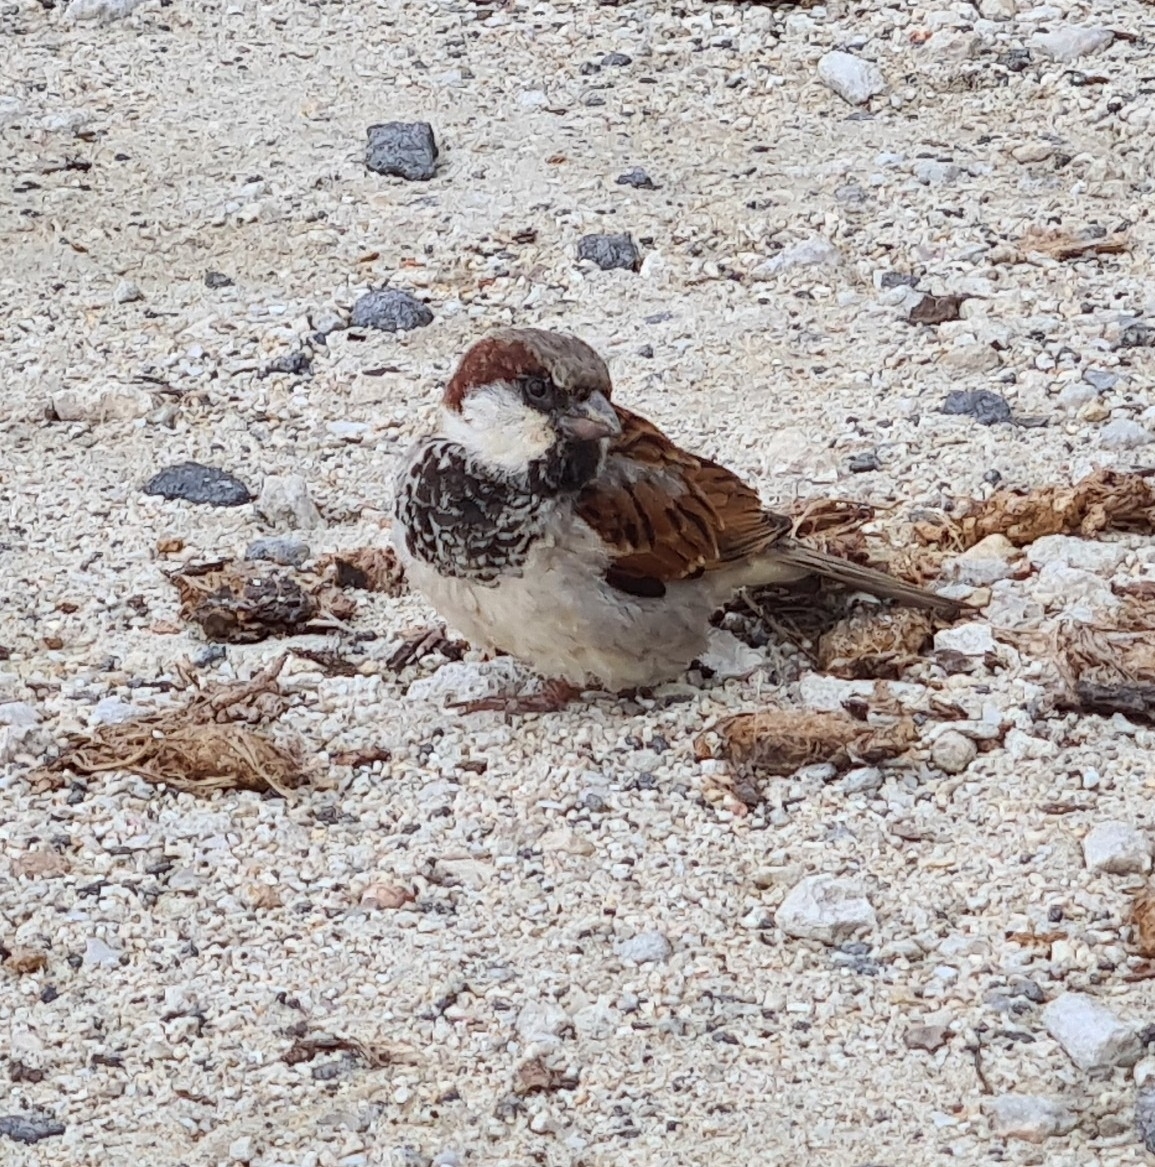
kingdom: Animalia
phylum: Chordata
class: Aves
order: Passeriformes
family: Passeridae
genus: Passer
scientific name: Passer domesticus
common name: House sparrow
